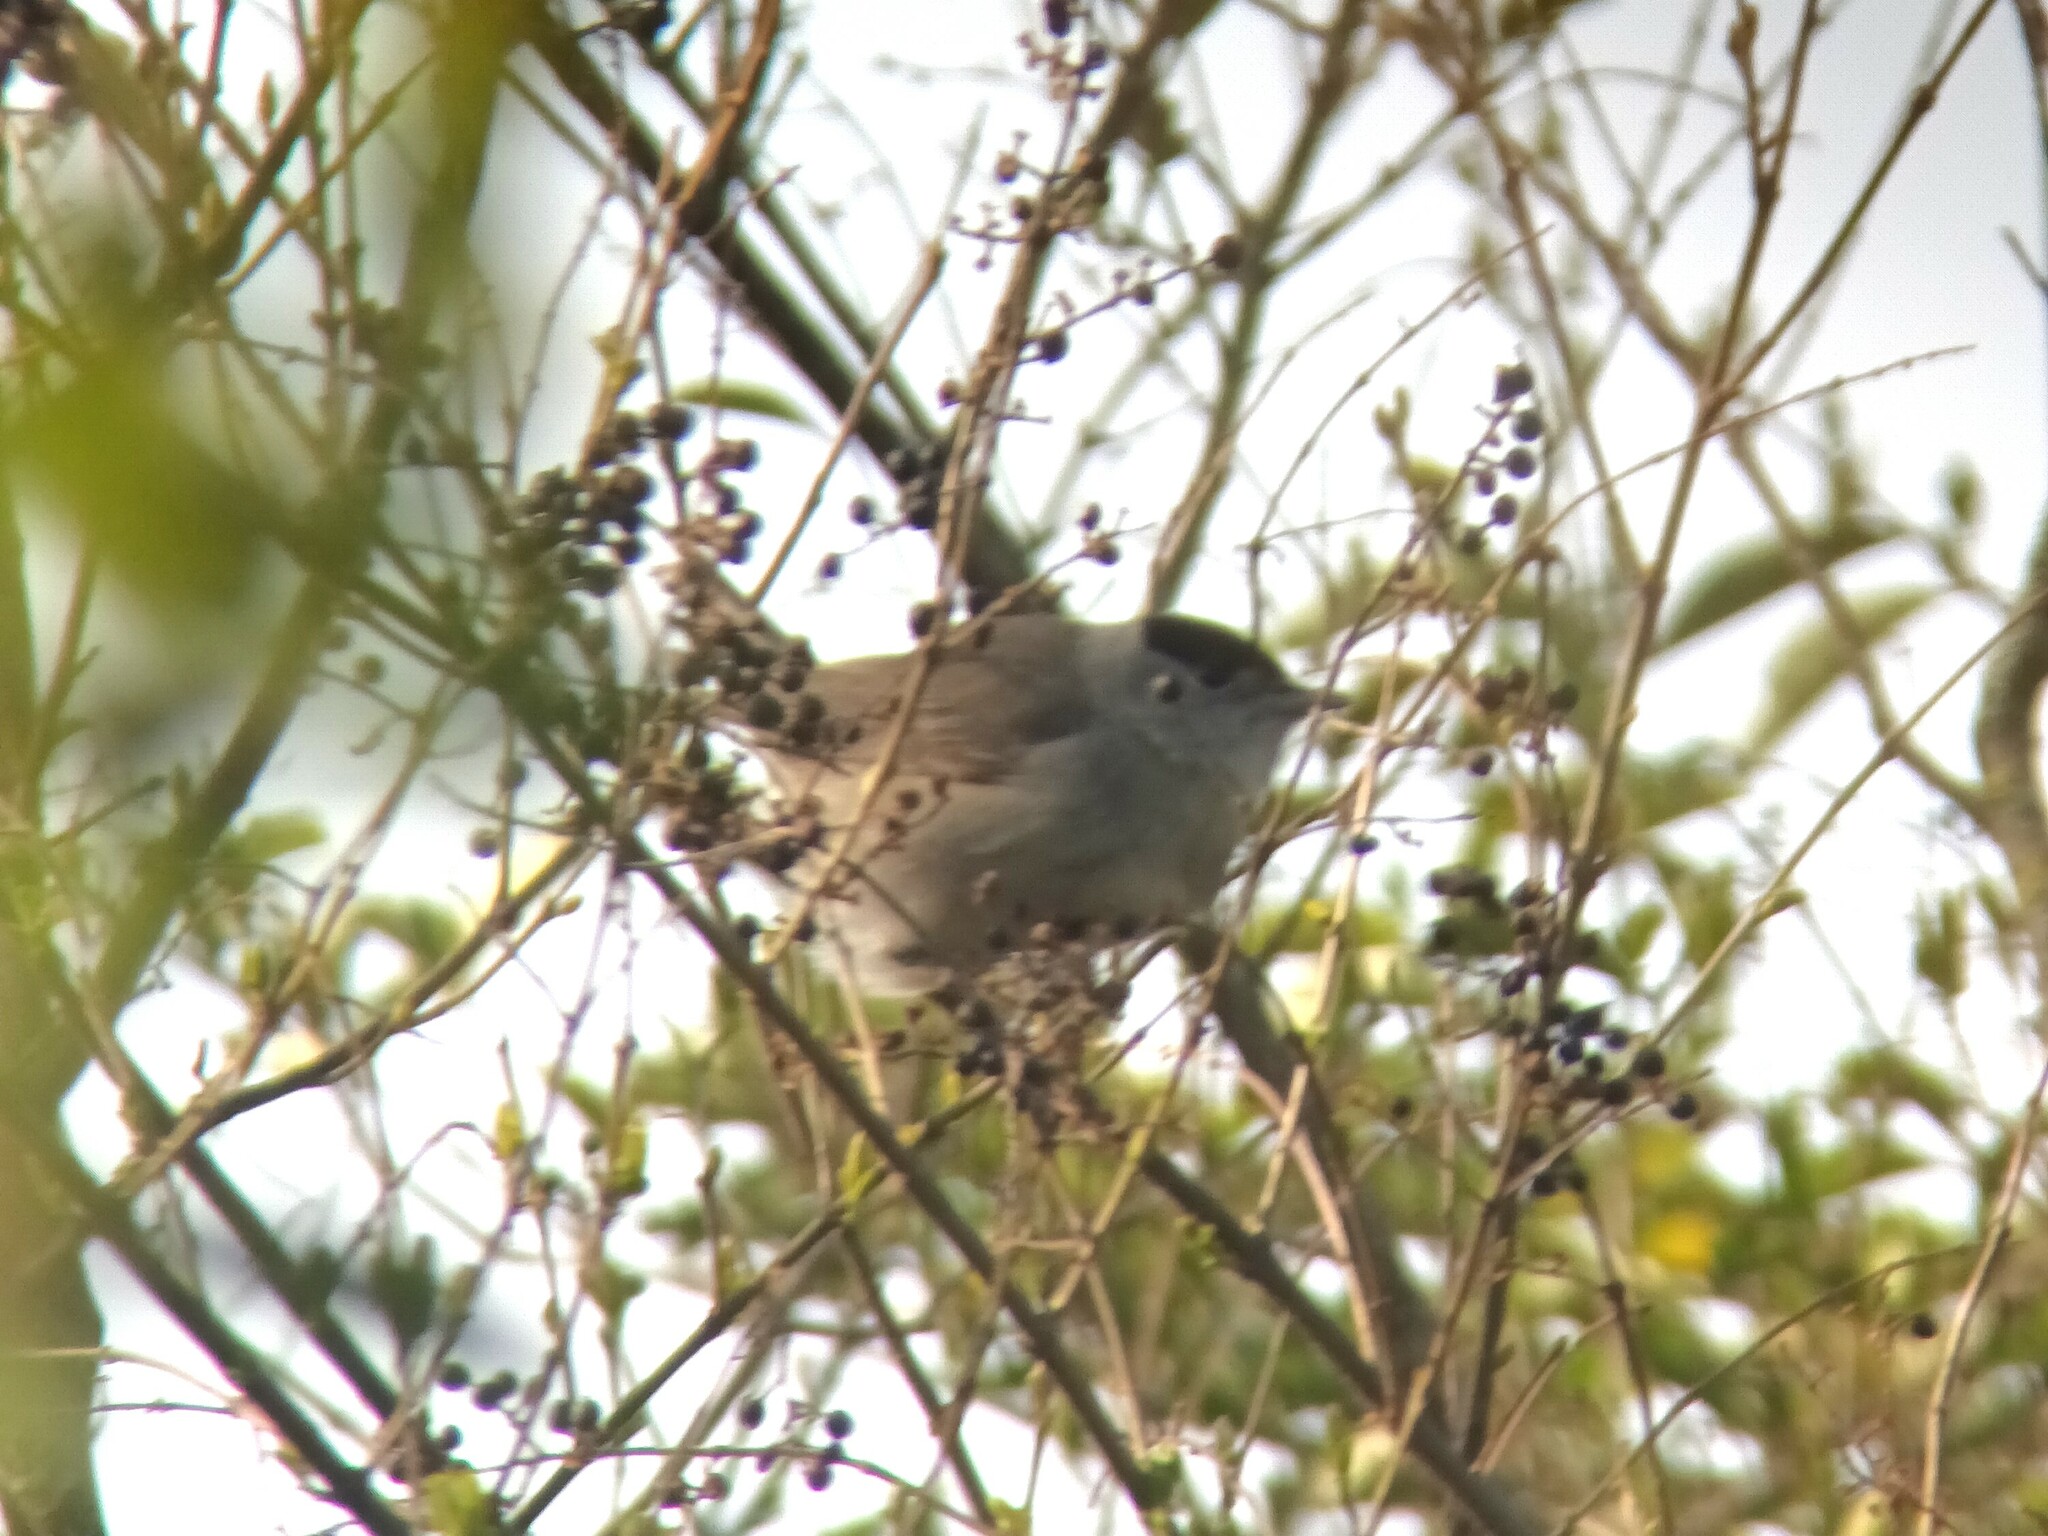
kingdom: Animalia
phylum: Chordata
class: Aves
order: Passeriformes
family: Sylviidae
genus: Sylvia
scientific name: Sylvia atricapilla
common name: Eurasian blackcap
